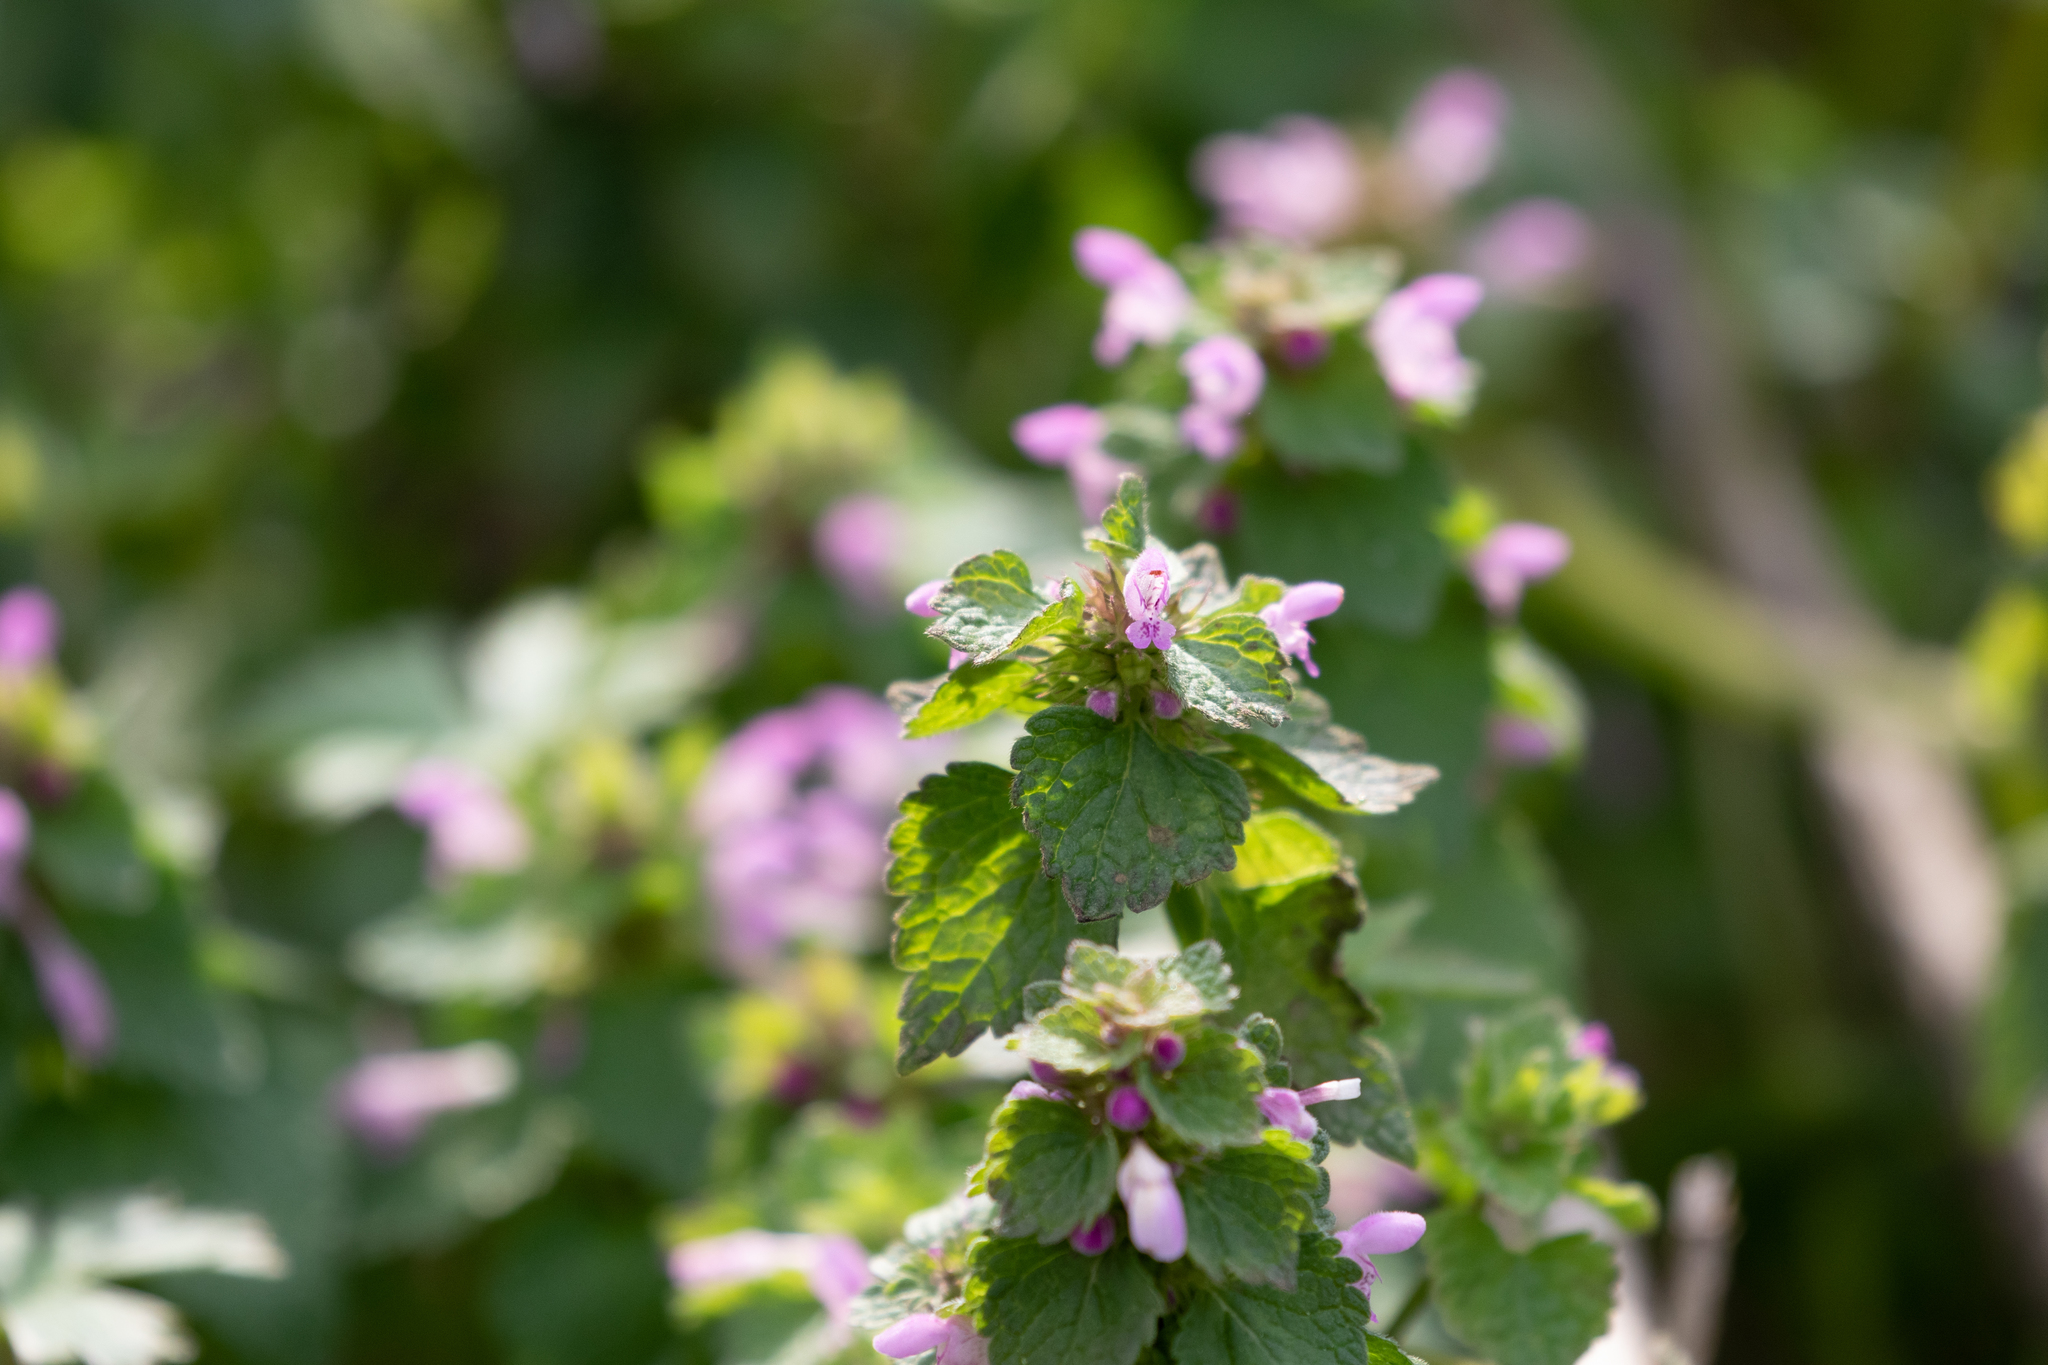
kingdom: Plantae
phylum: Tracheophyta
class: Magnoliopsida
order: Lamiales
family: Lamiaceae
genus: Lamium
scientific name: Lamium purpureum
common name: Red dead-nettle
